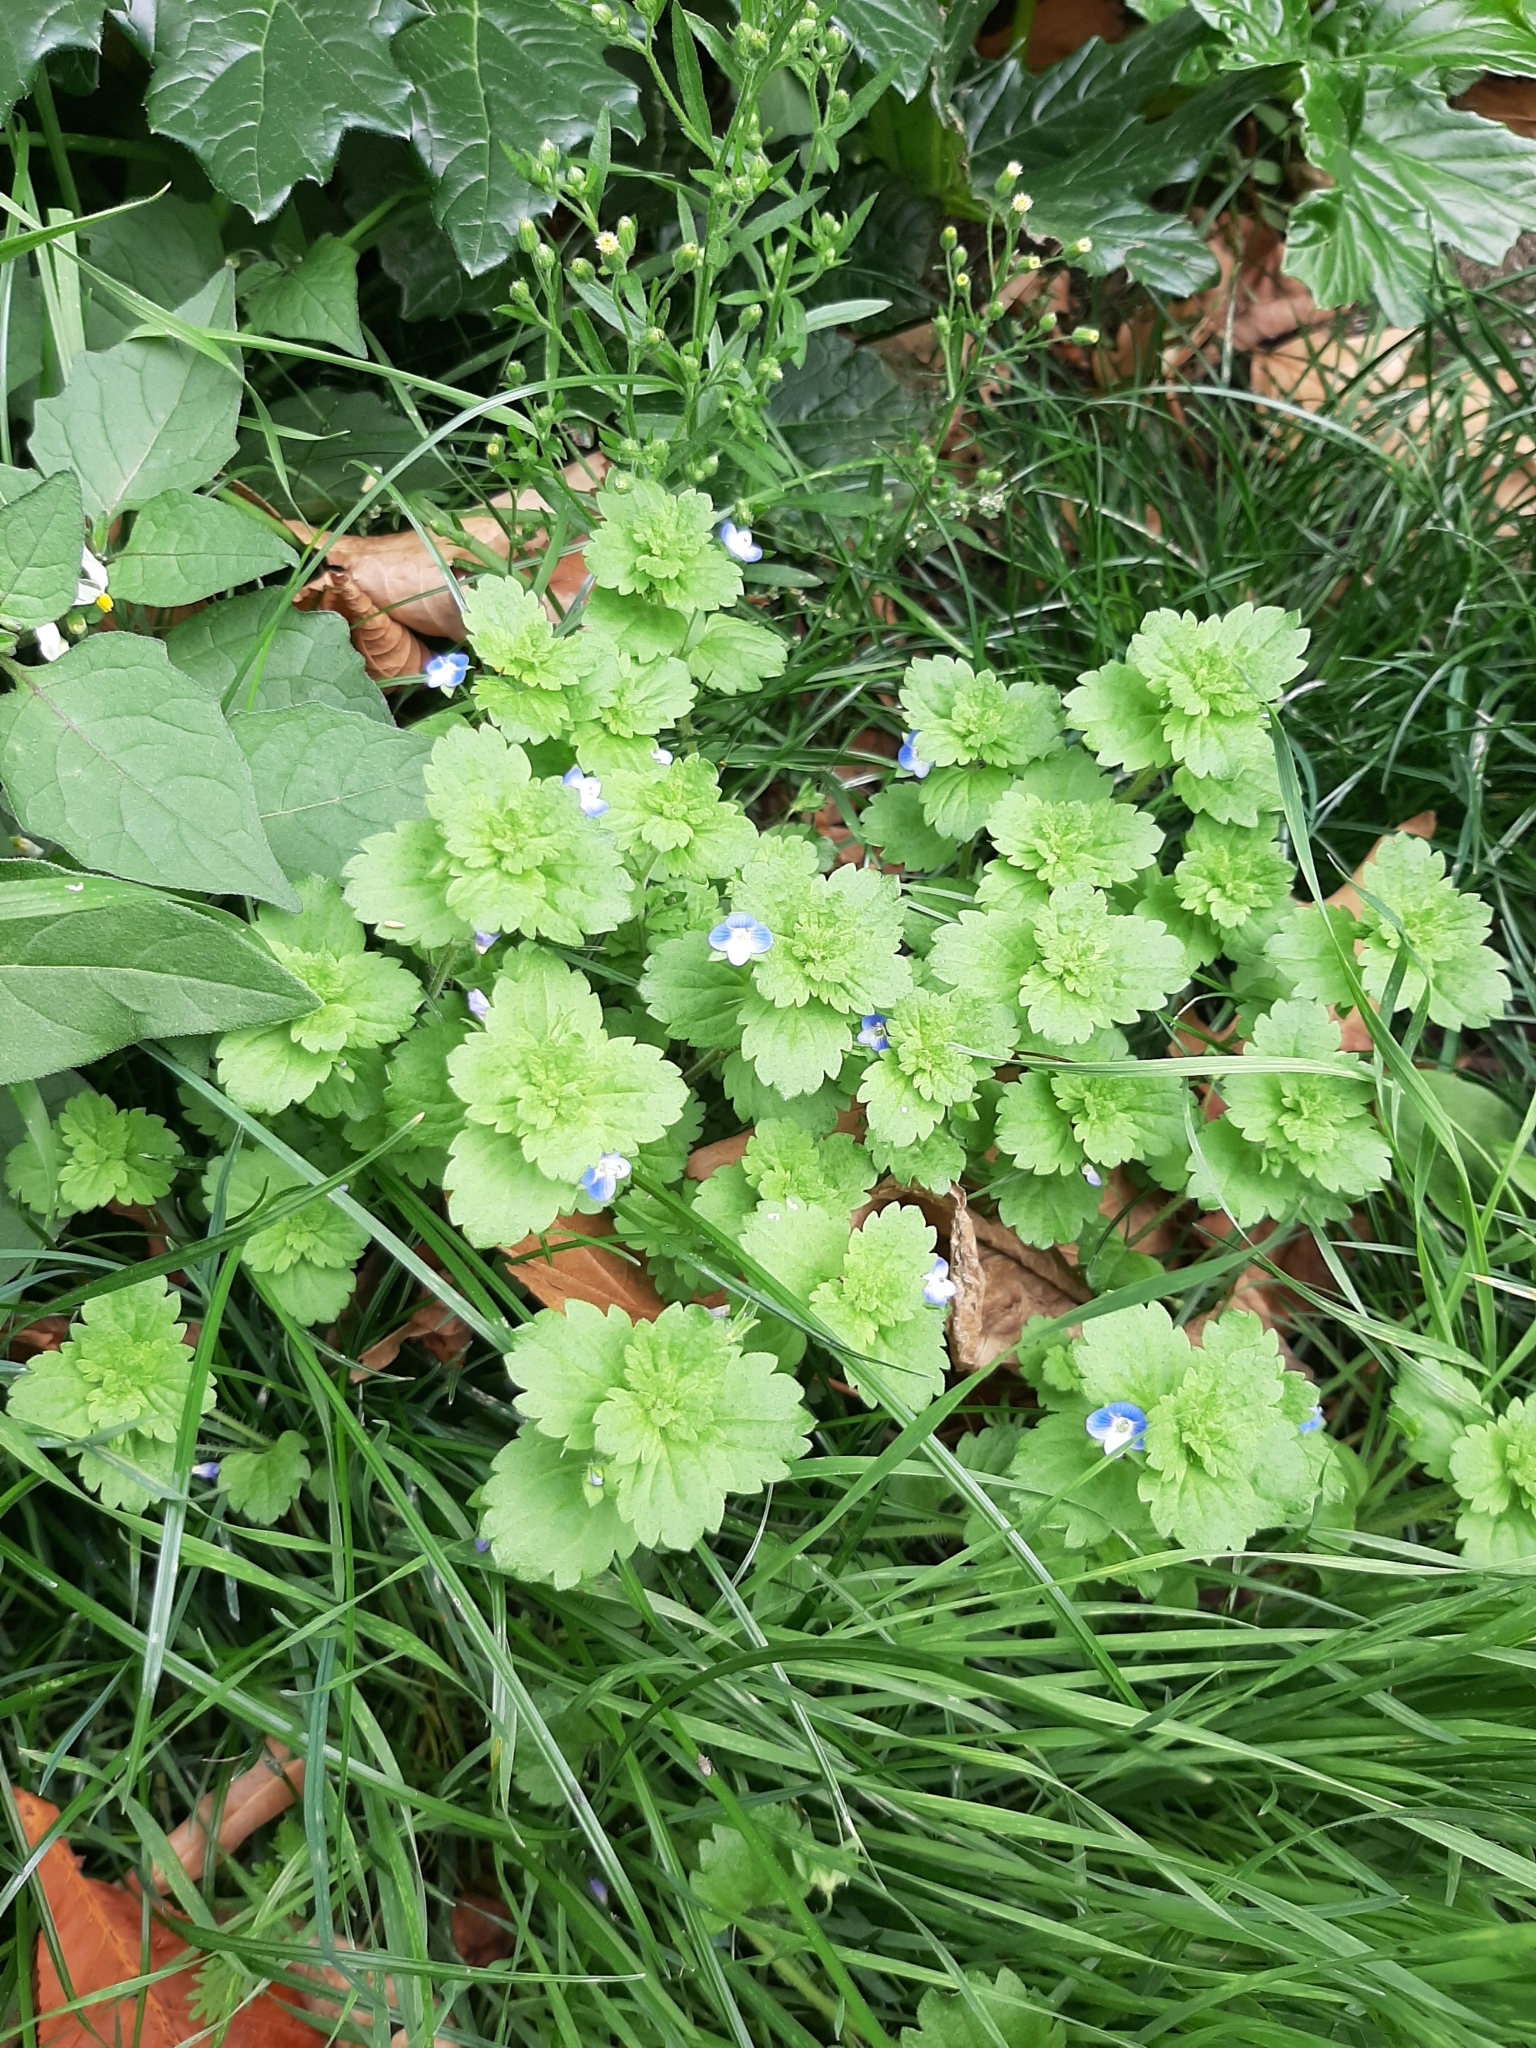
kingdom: Plantae
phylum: Tracheophyta
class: Magnoliopsida
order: Lamiales
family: Plantaginaceae
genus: Veronica
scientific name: Veronica persica
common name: Common field-speedwell
